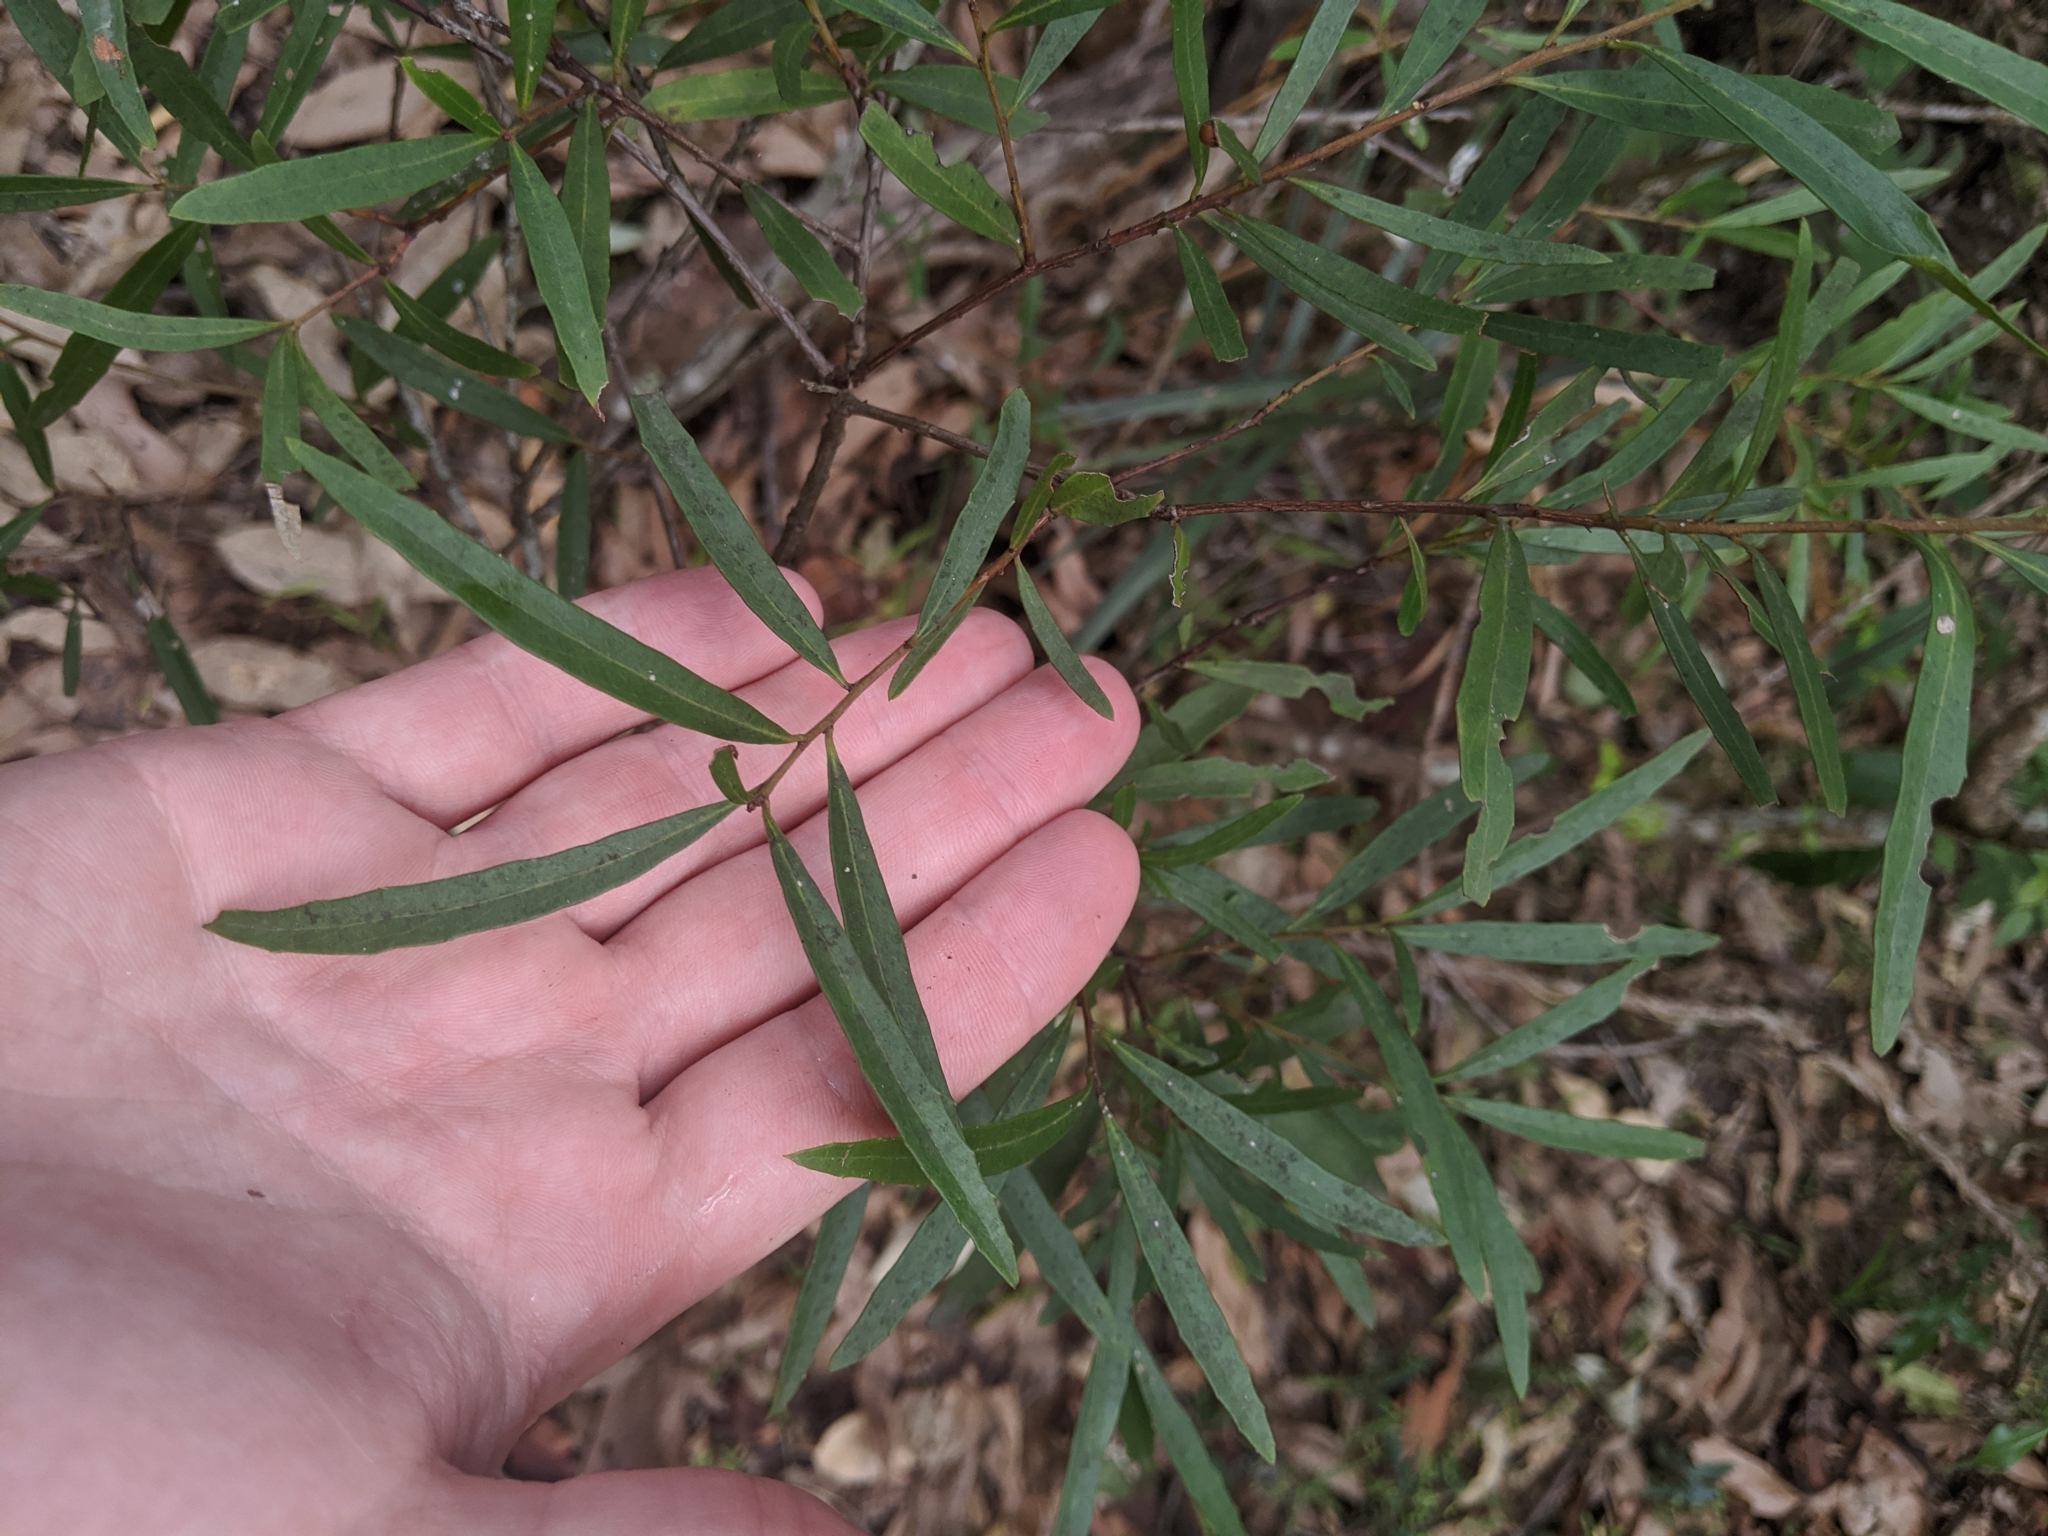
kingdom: Plantae
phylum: Tracheophyta
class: Magnoliopsida
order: Celastrales
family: Celastraceae
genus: Denhamia
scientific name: Denhamia silvestris
